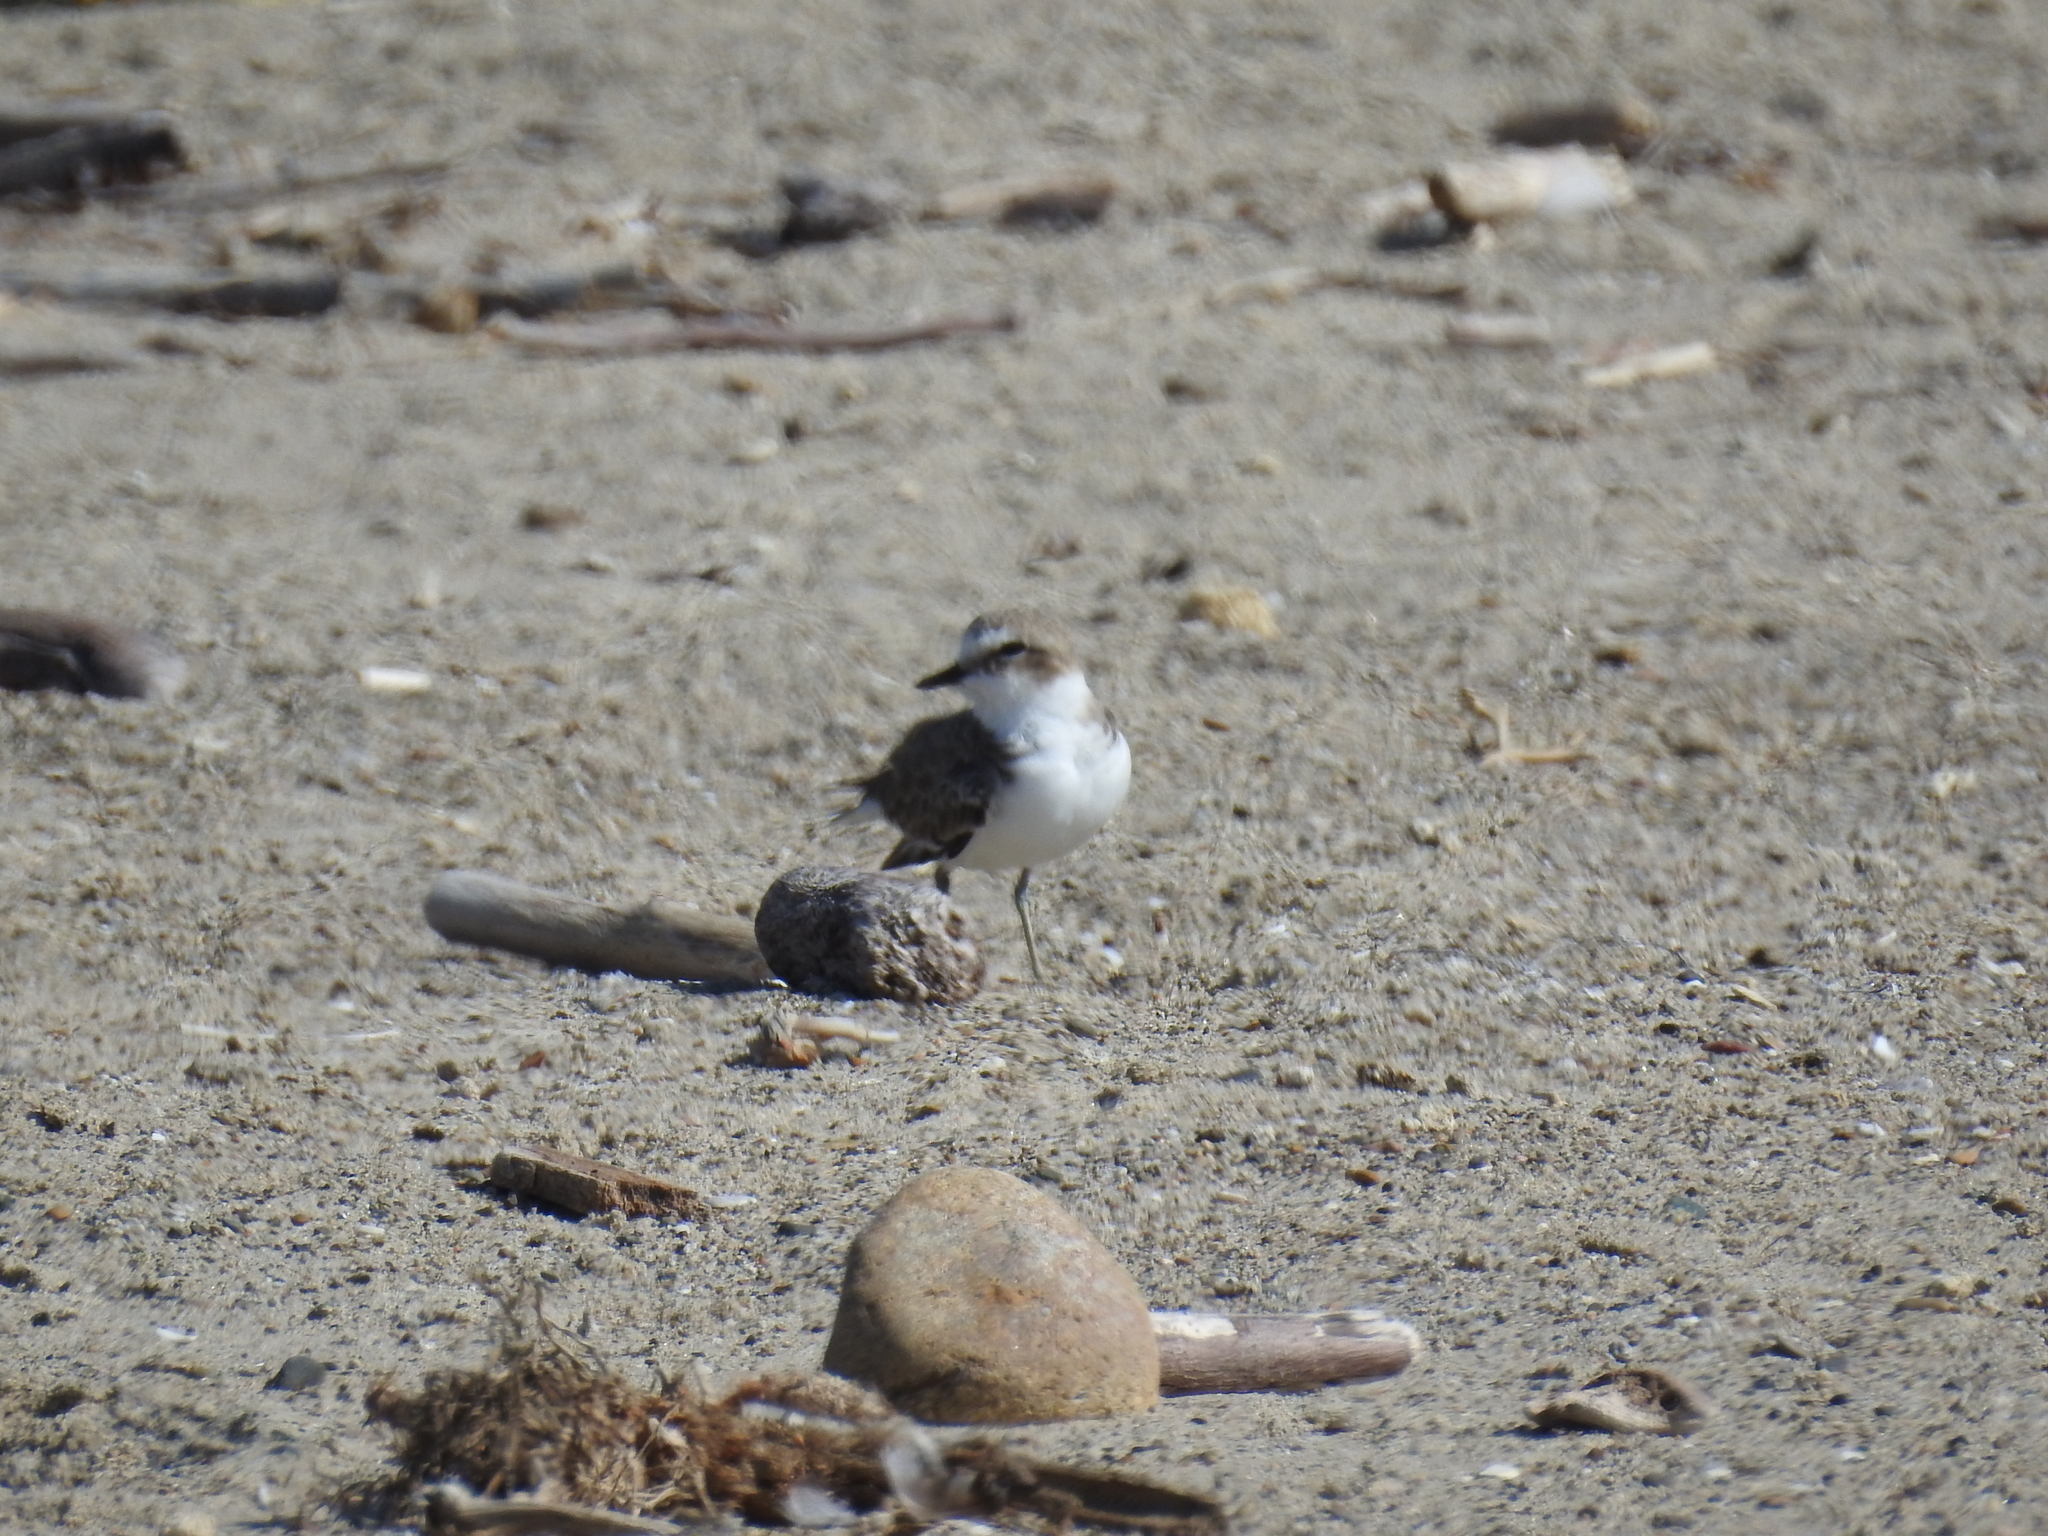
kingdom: Animalia
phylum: Chordata
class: Aves
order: Charadriiformes
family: Charadriidae
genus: Anarhynchus
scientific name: Anarhynchus
